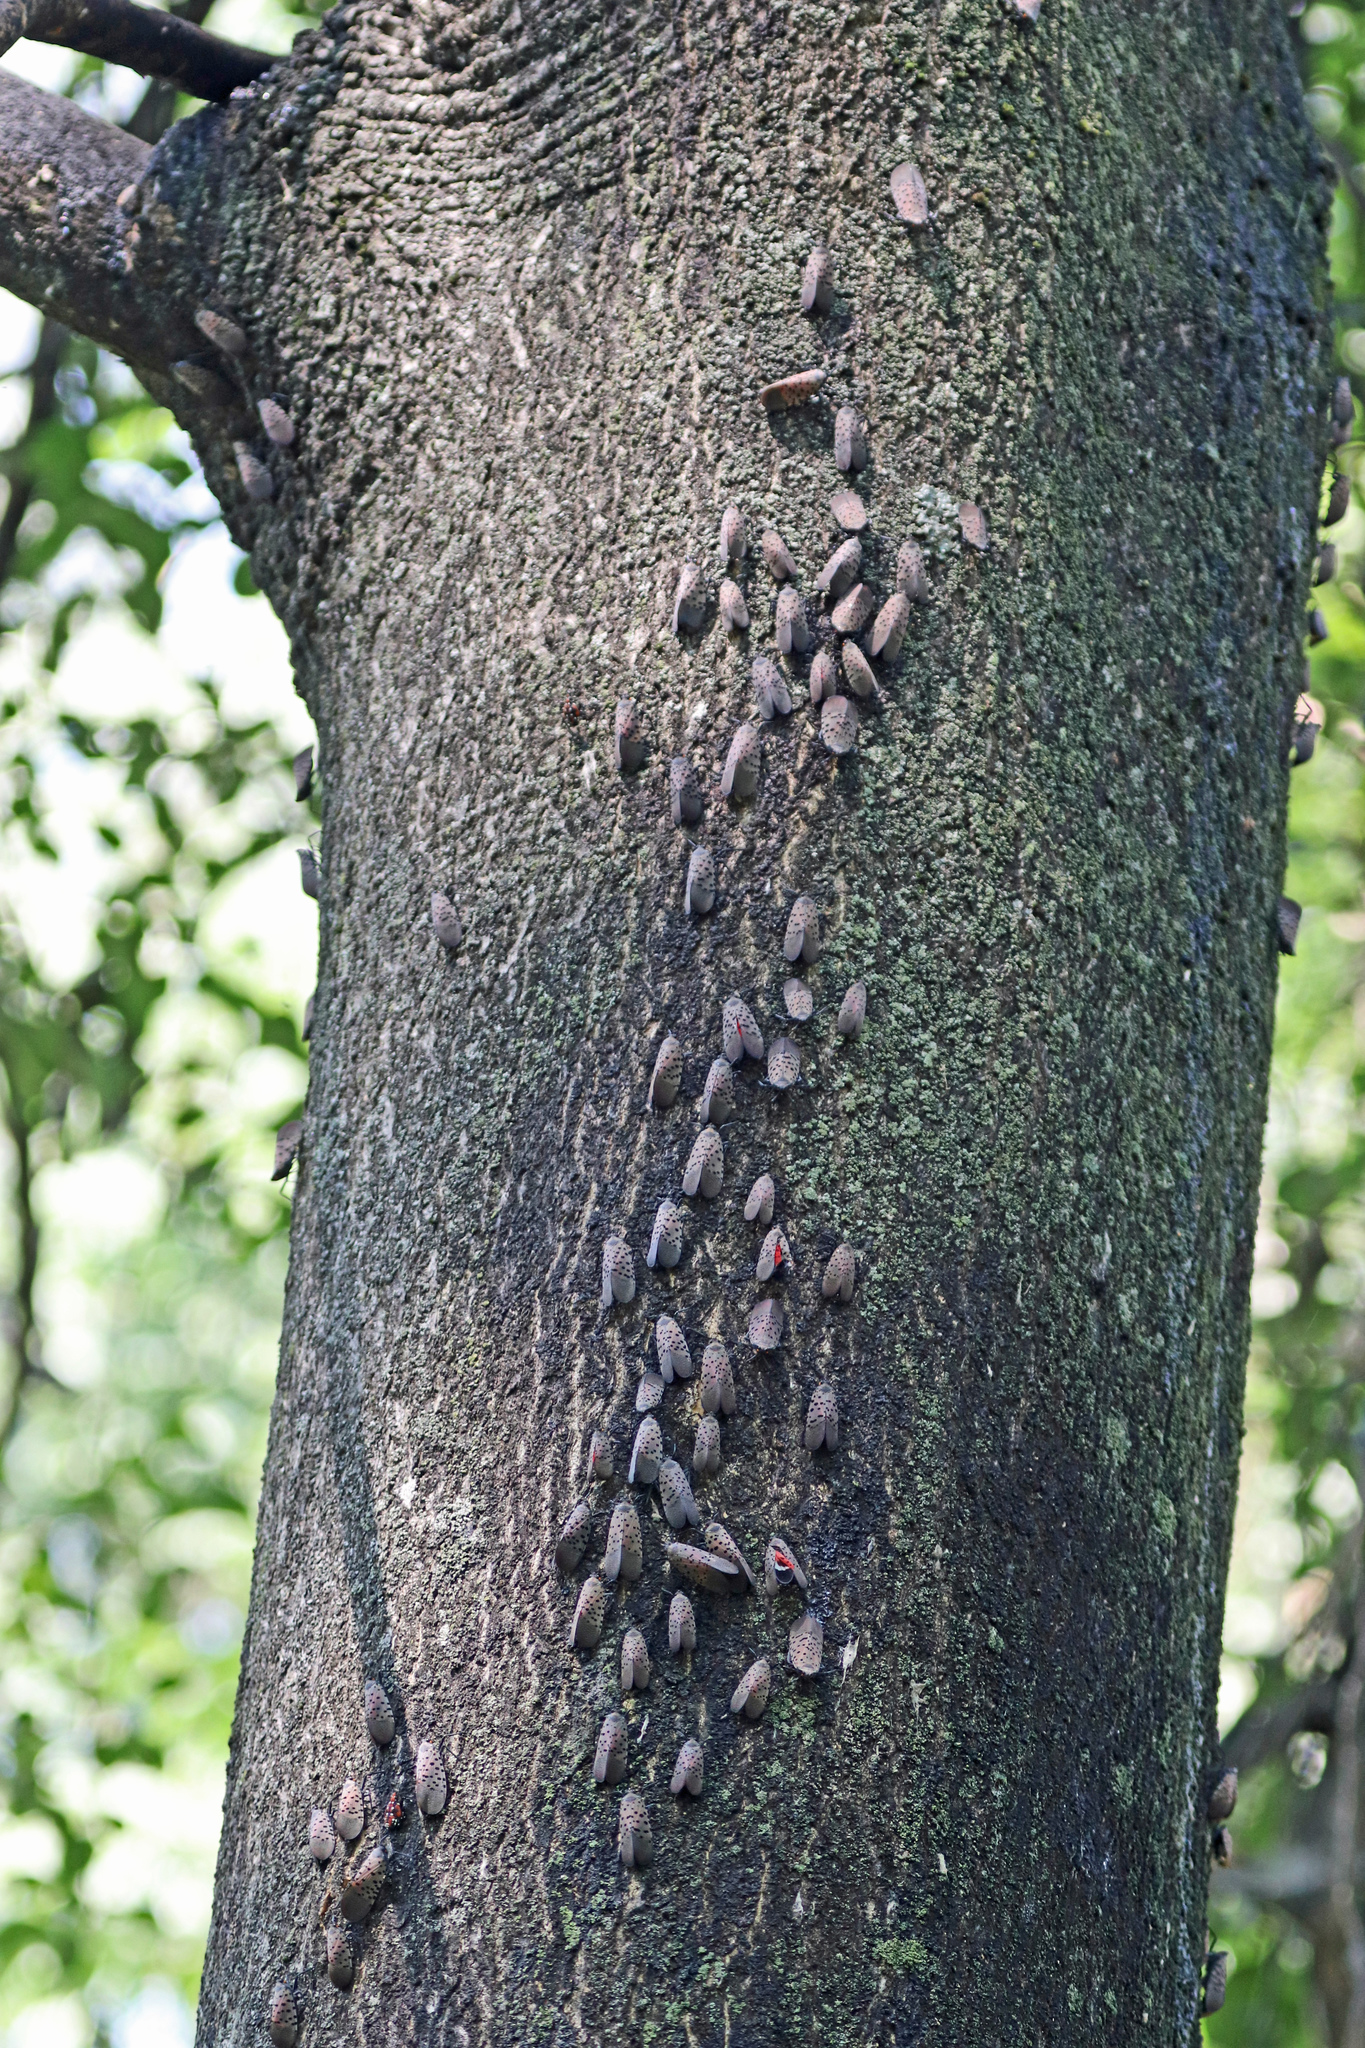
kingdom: Animalia
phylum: Arthropoda
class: Insecta
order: Hemiptera
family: Fulgoridae
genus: Lycorma
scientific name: Lycorma delicatula
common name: Spotted lanternfly
